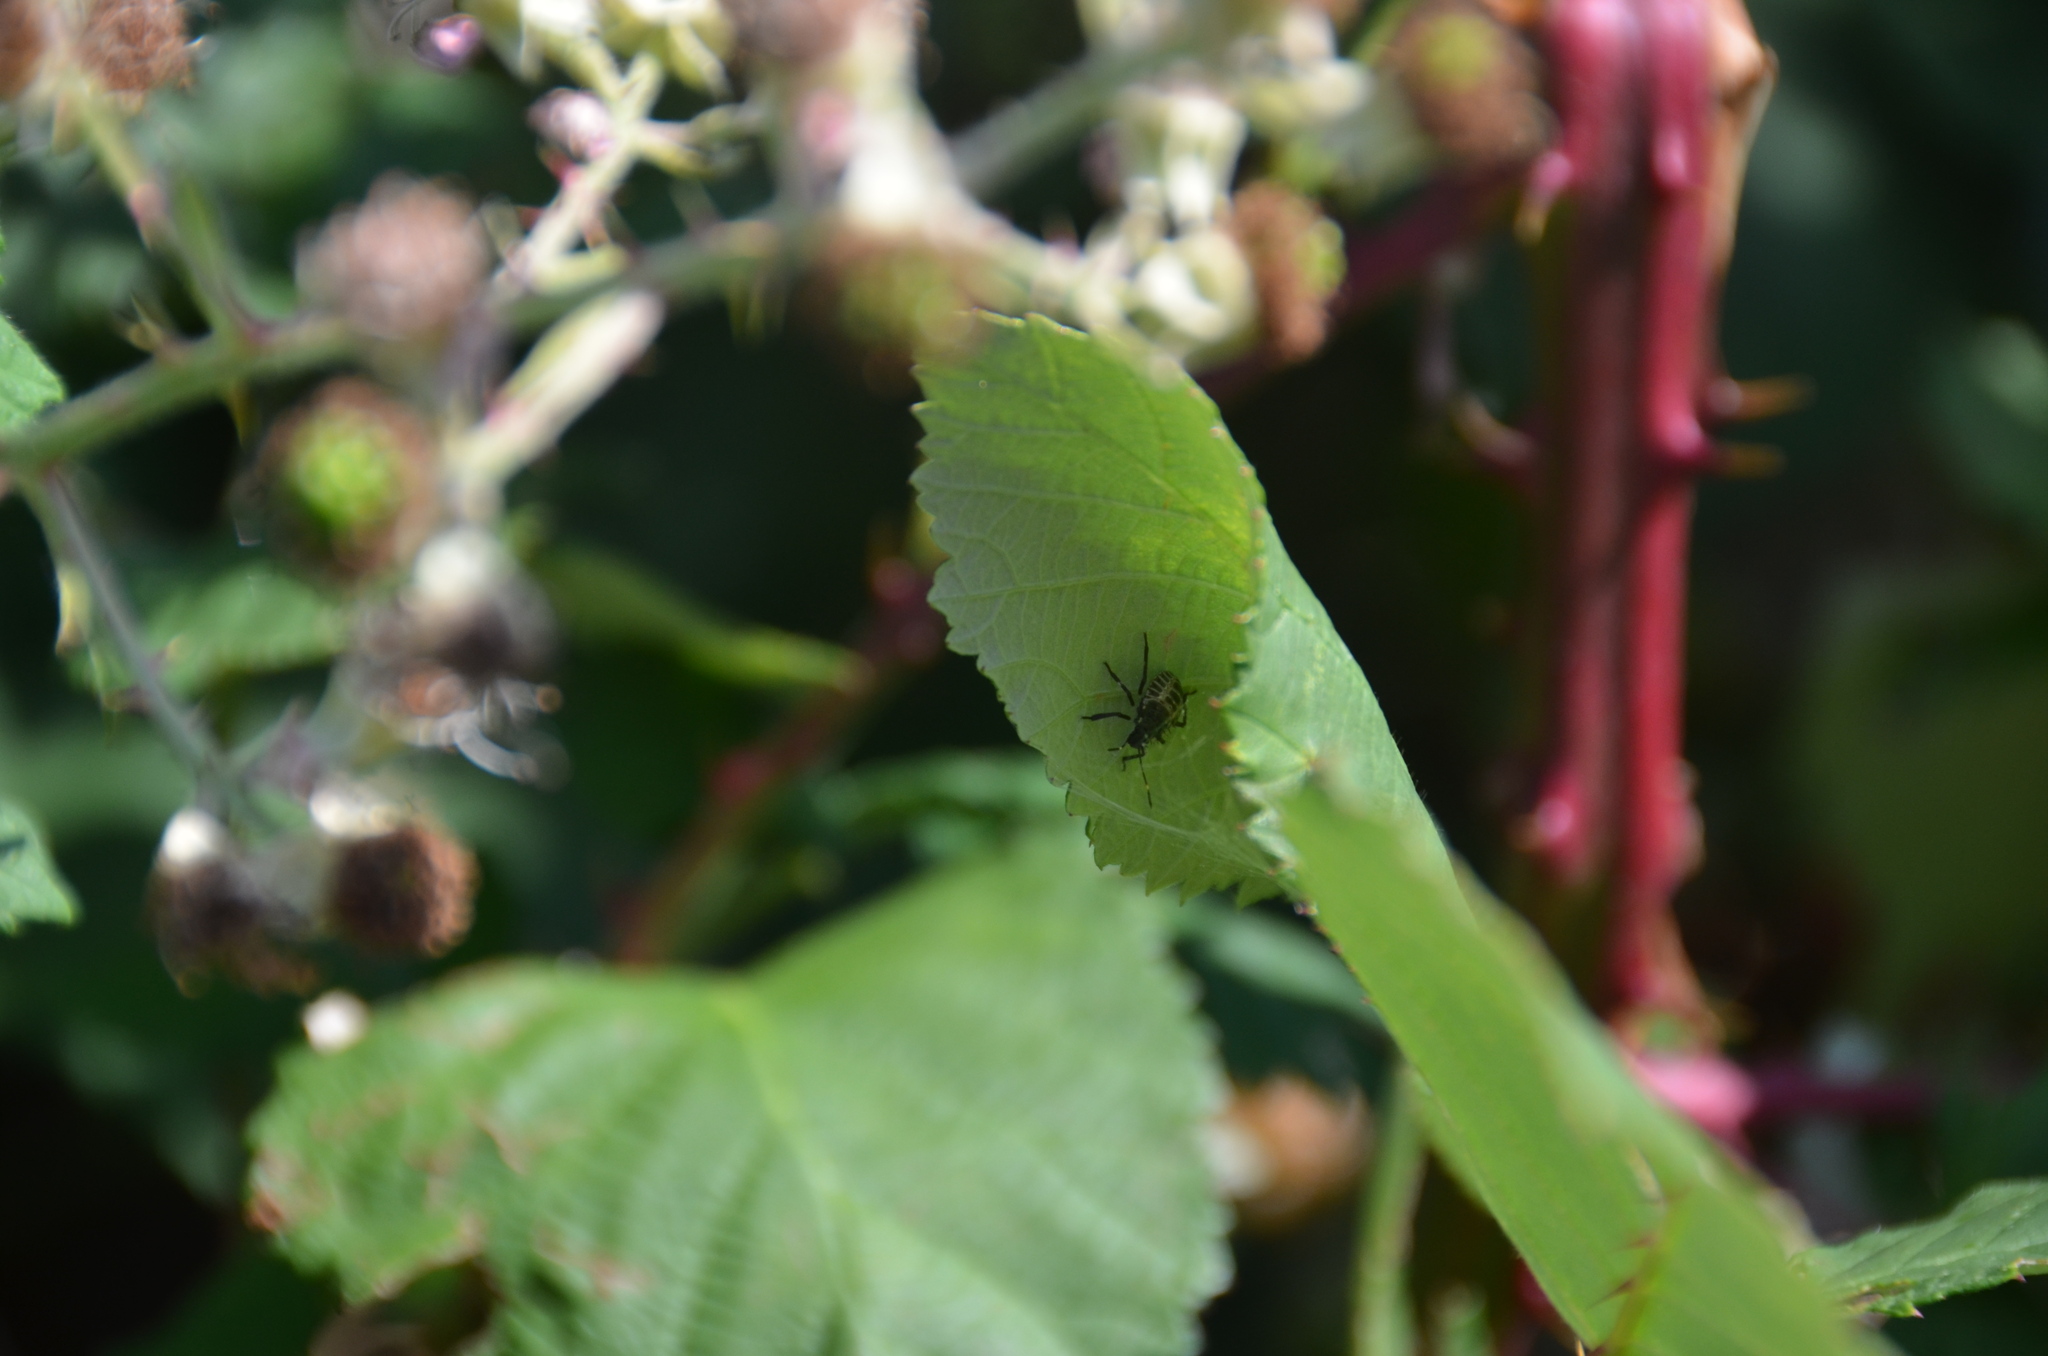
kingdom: Animalia
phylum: Arthropoda
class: Insecta
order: Hemiptera
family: Pentatomidae
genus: Halyomorpha
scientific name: Halyomorpha halys
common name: Brown marmorated stink bug
